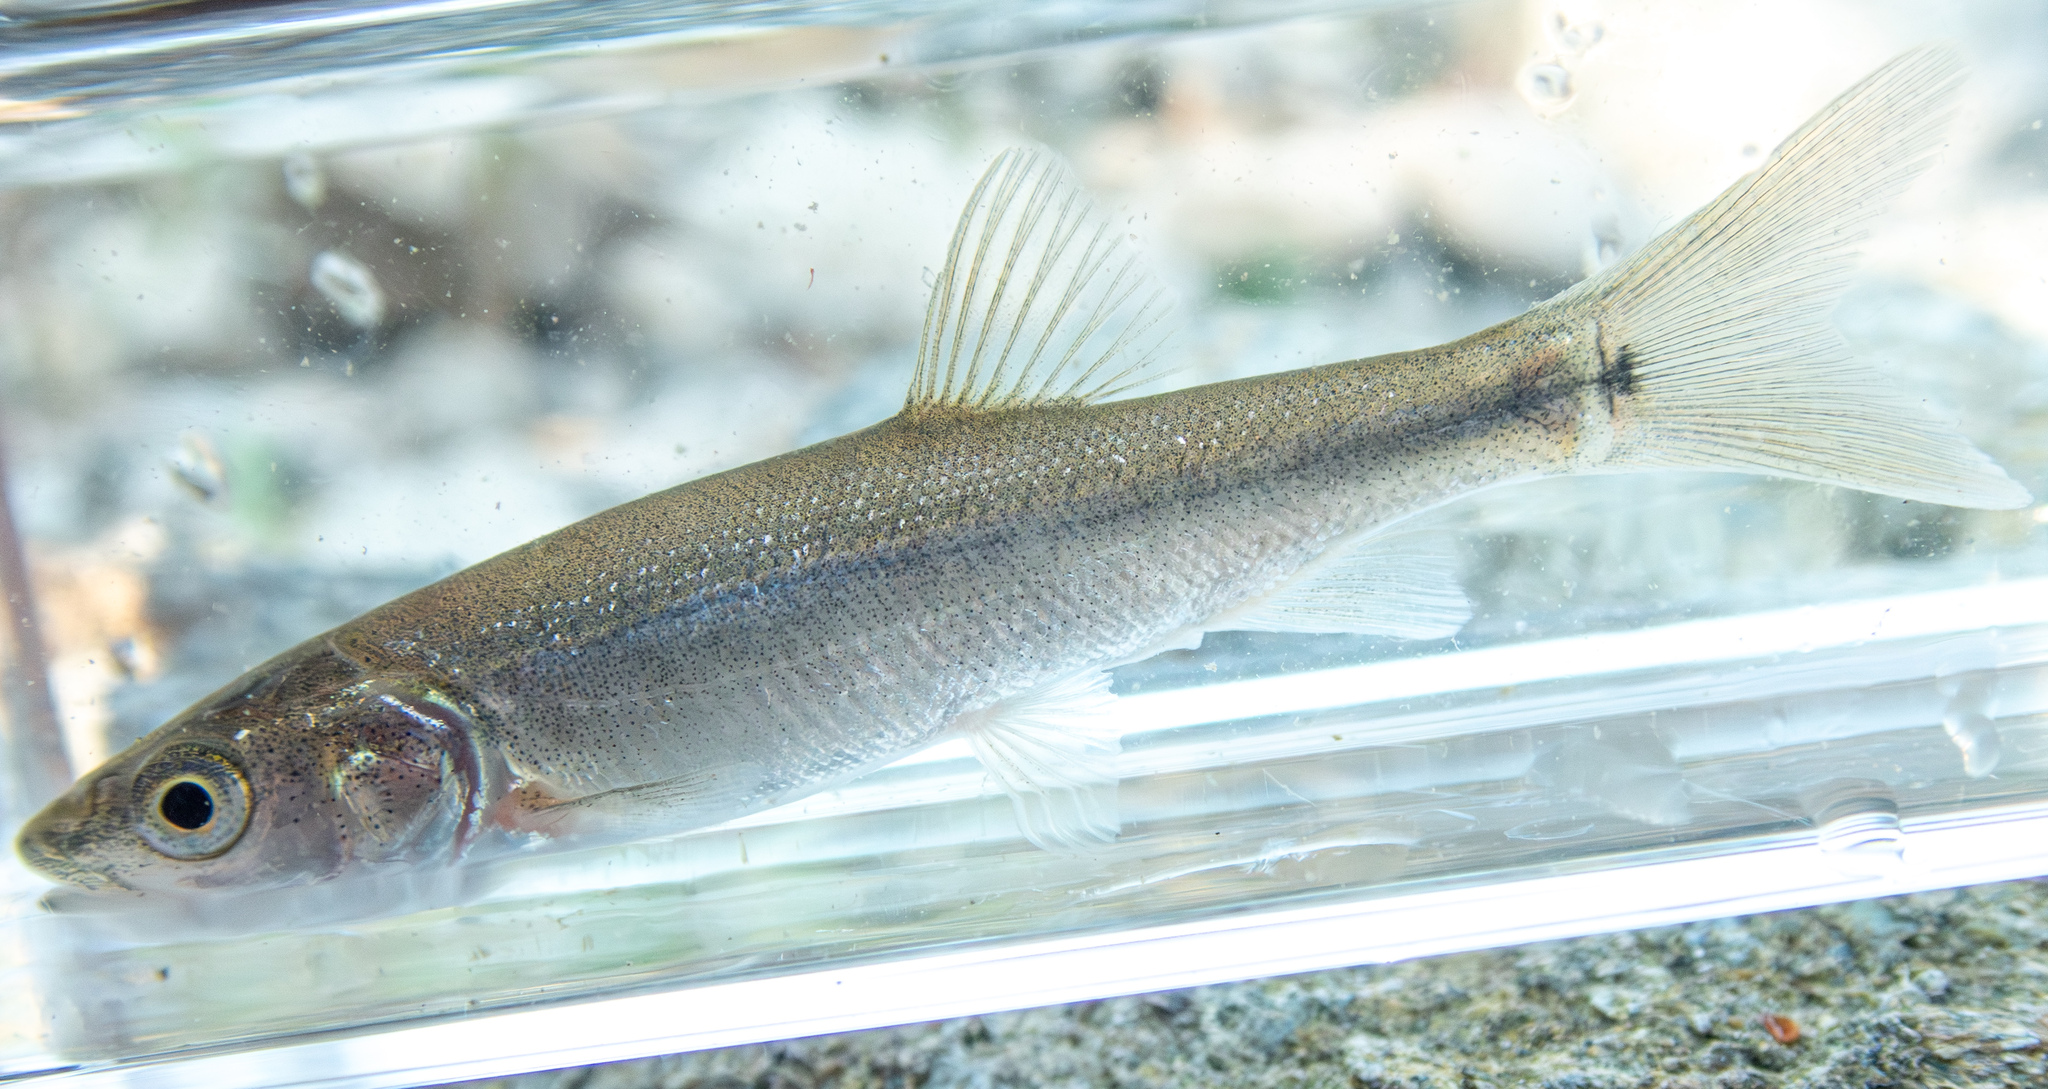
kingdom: Animalia
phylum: Chordata
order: Cypriniformes
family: Cyprinidae
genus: Ptychocheilus
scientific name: Ptychocheilus grandis
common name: Sacramento pikeminnow
